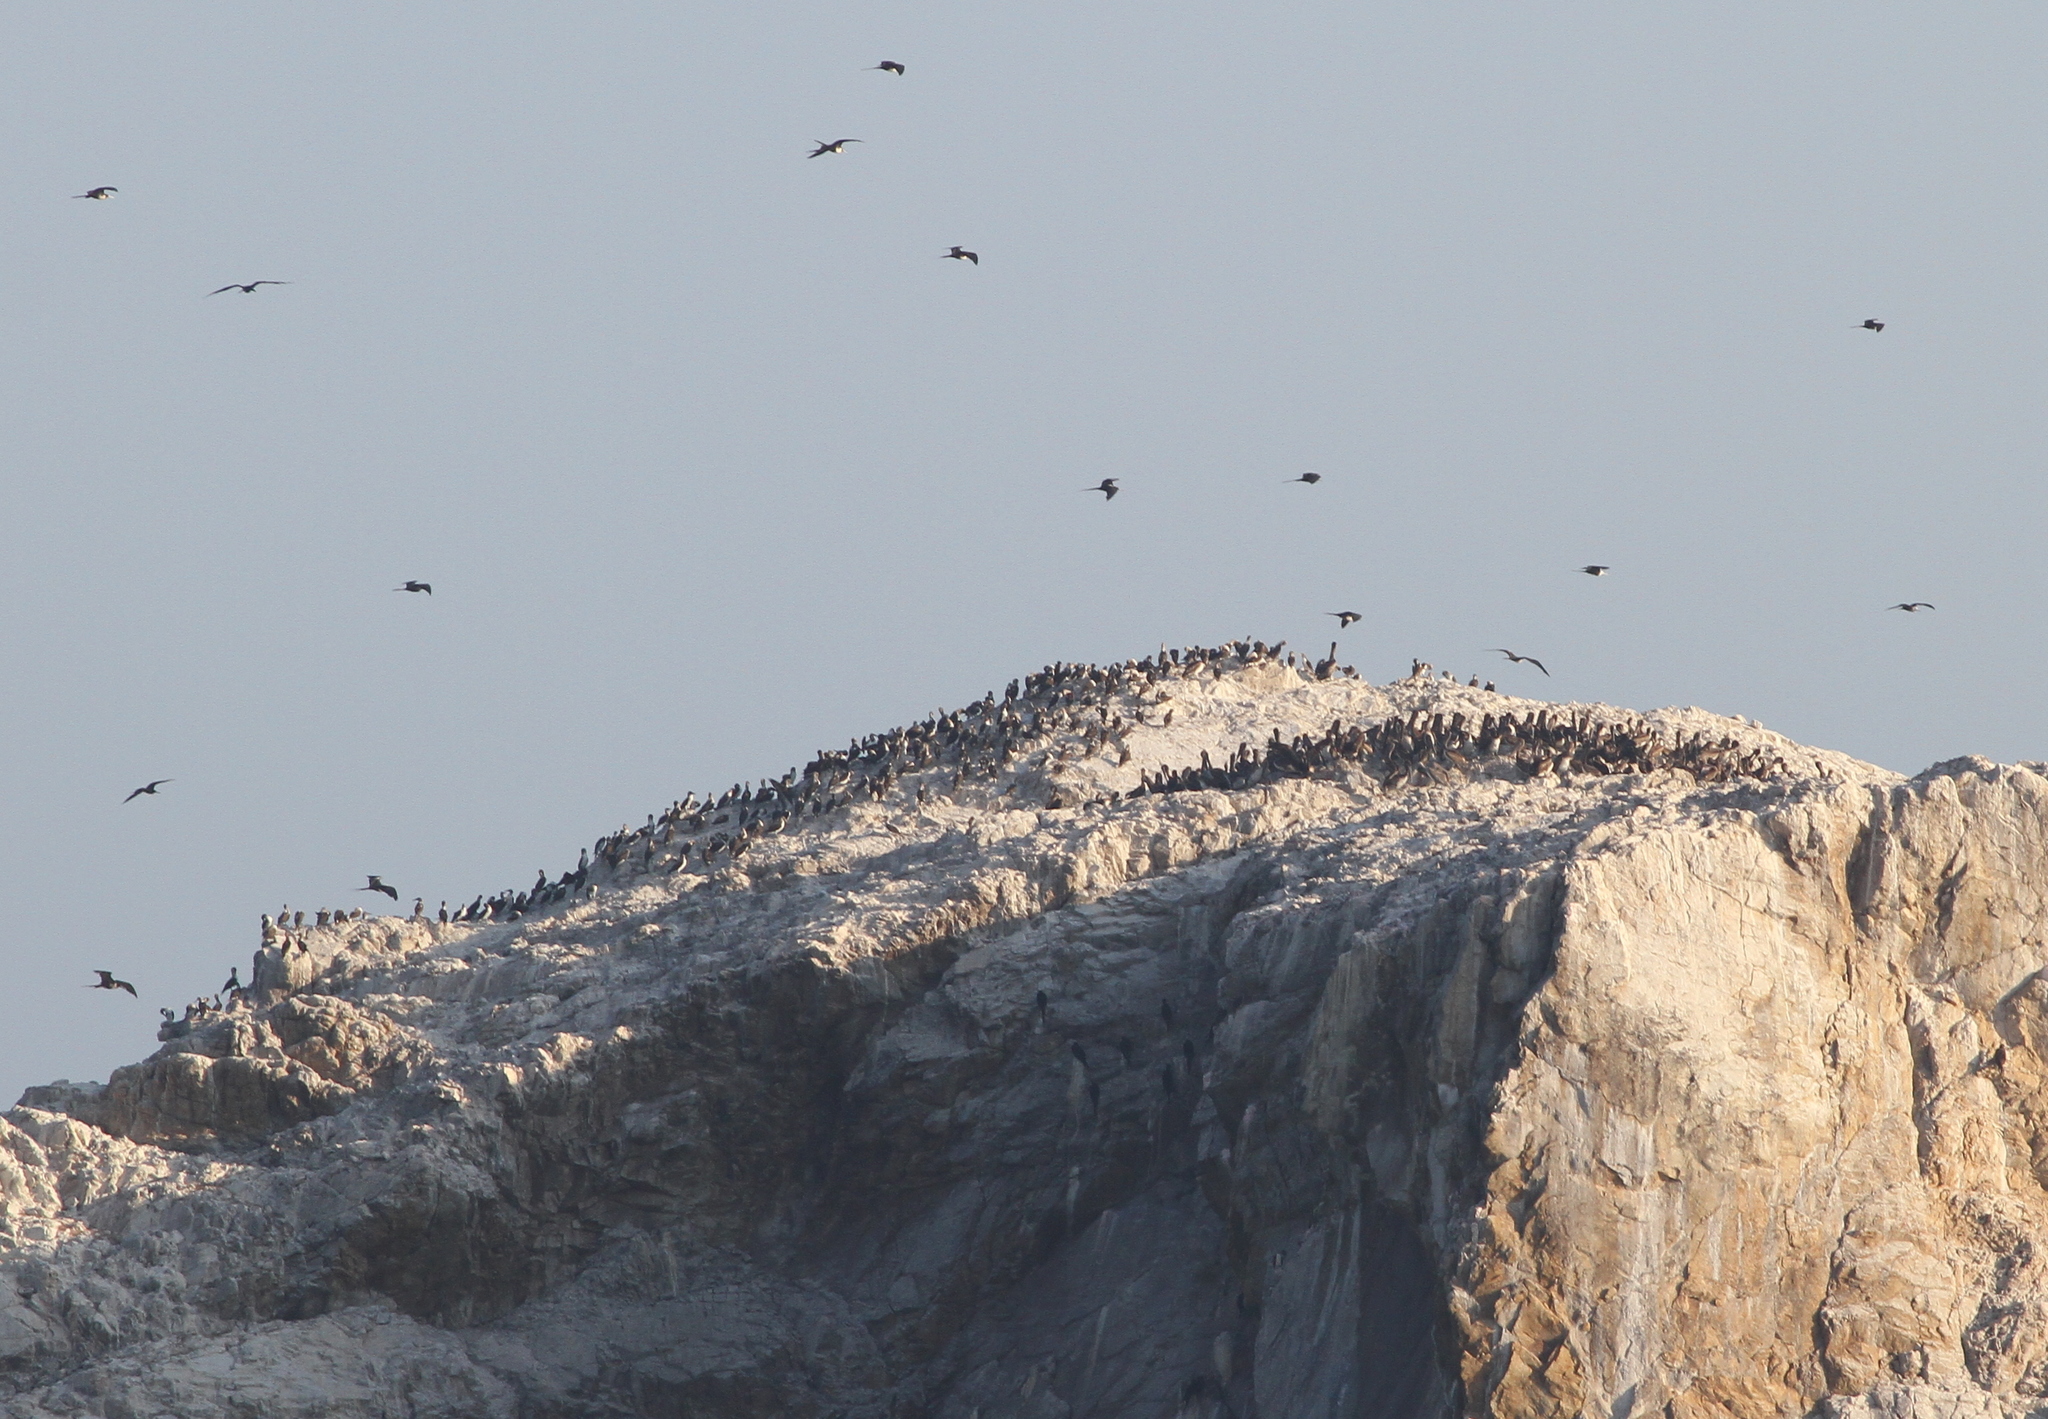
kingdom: Animalia
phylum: Chordata
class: Aves
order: Suliformes
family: Sulidae
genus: Sula
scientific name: Sula nebouxii
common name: Blue-footed booby
